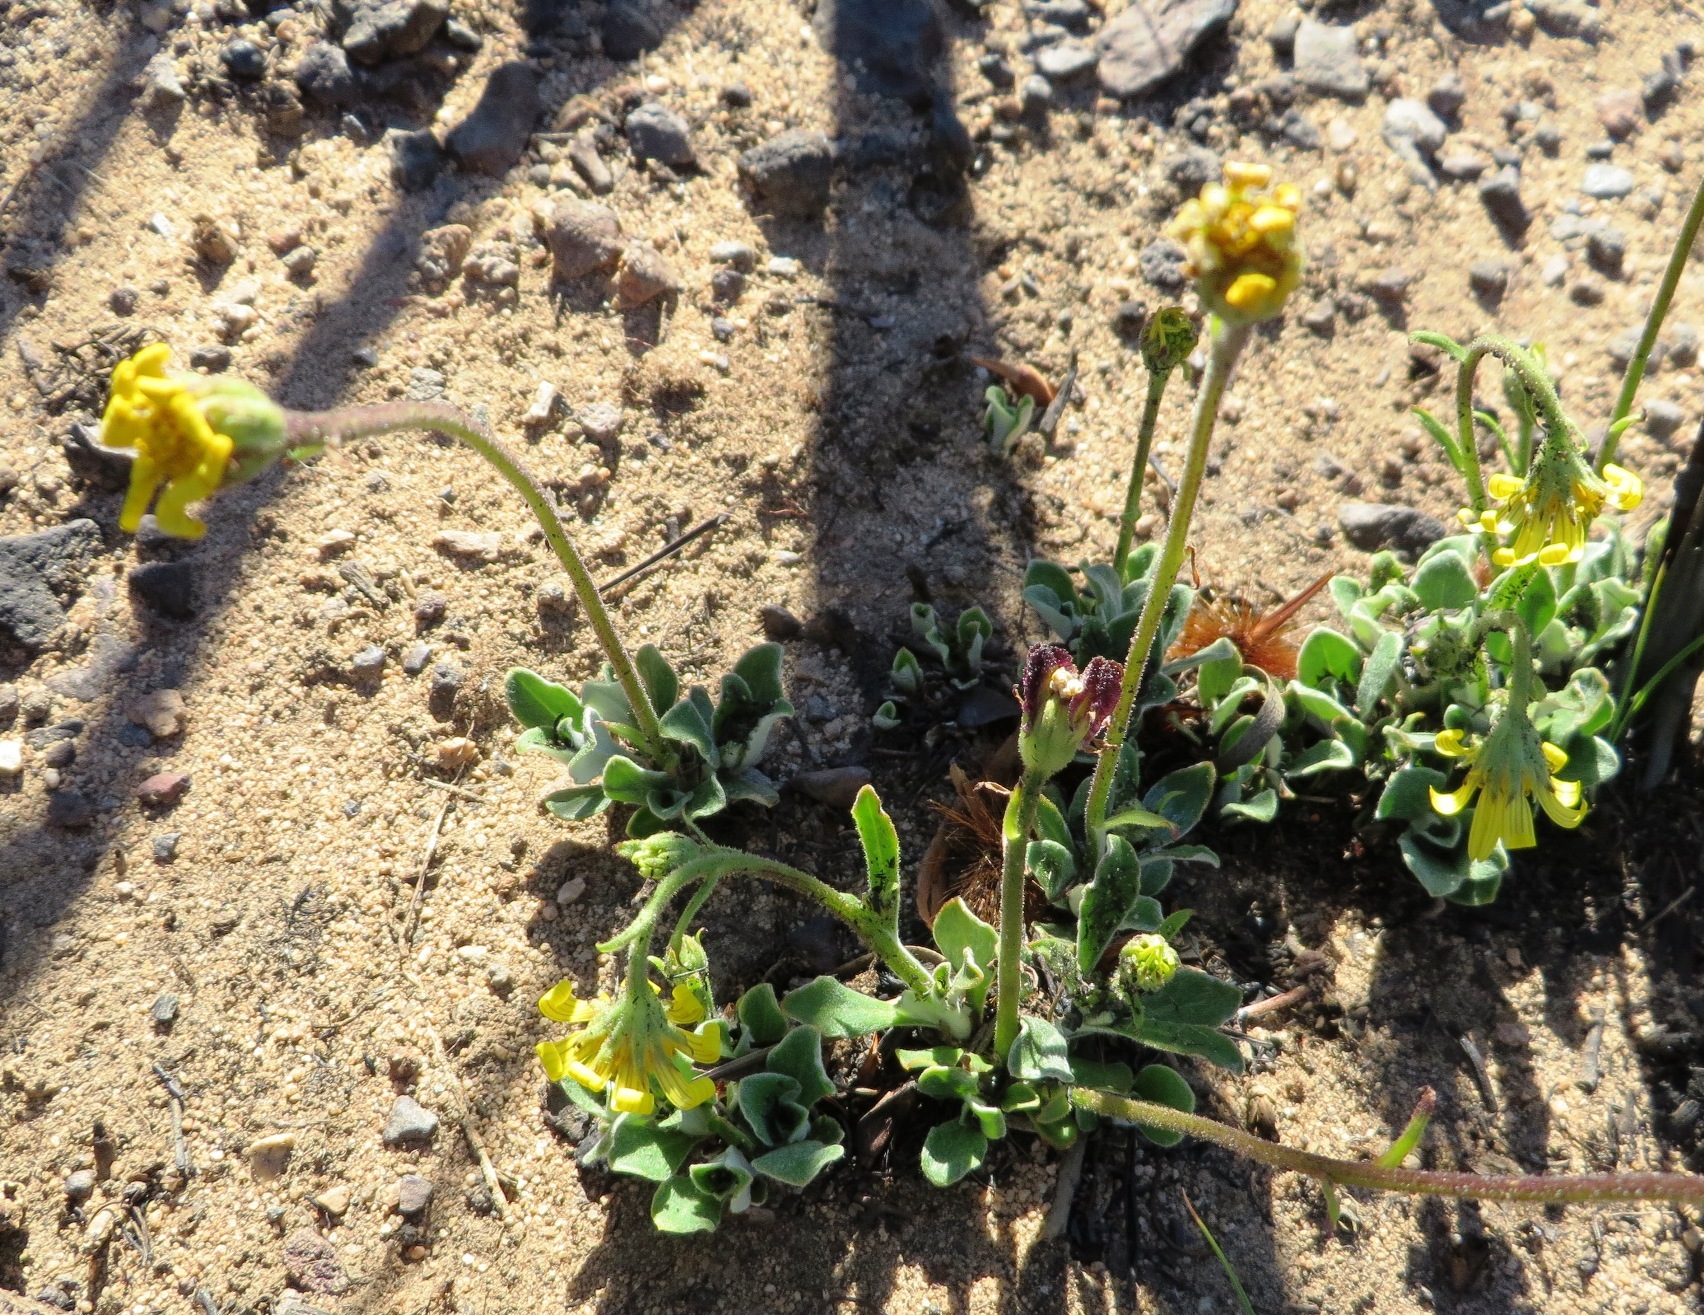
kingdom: Plantae
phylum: Tracheophyta
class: Magnoliopsida
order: Asterales
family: Asteraceae
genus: Osteospermum
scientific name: Osteospermum tomentosum
